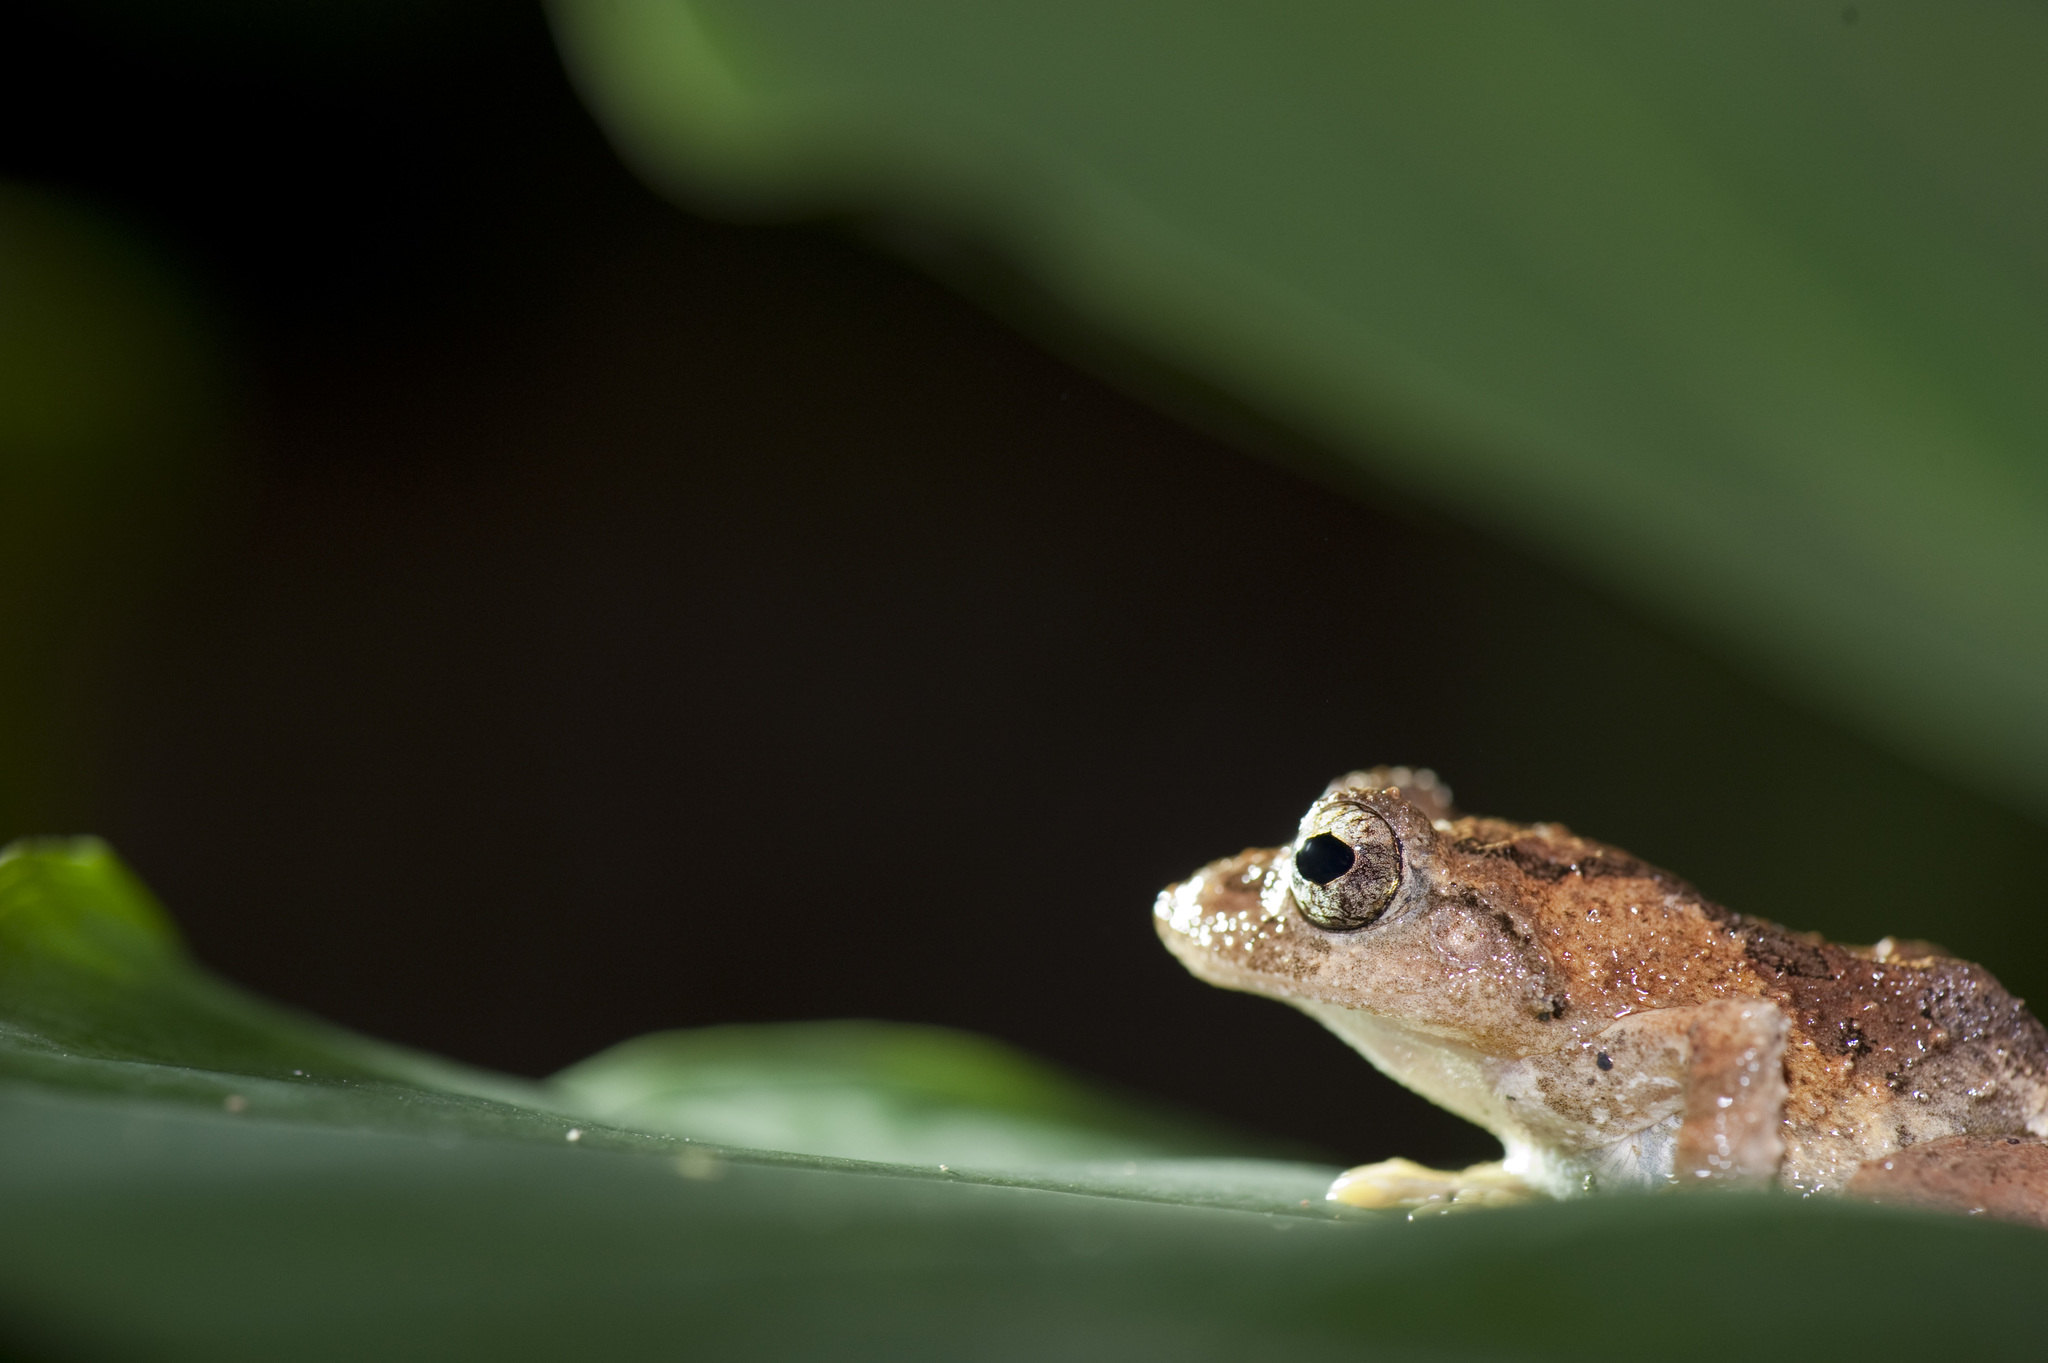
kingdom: Animalia
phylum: Chordata
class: Amphibia
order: Anura
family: Rhacophoridae
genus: Kurixalus
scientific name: Kurixalus idiootocus
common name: Temple treefrog
